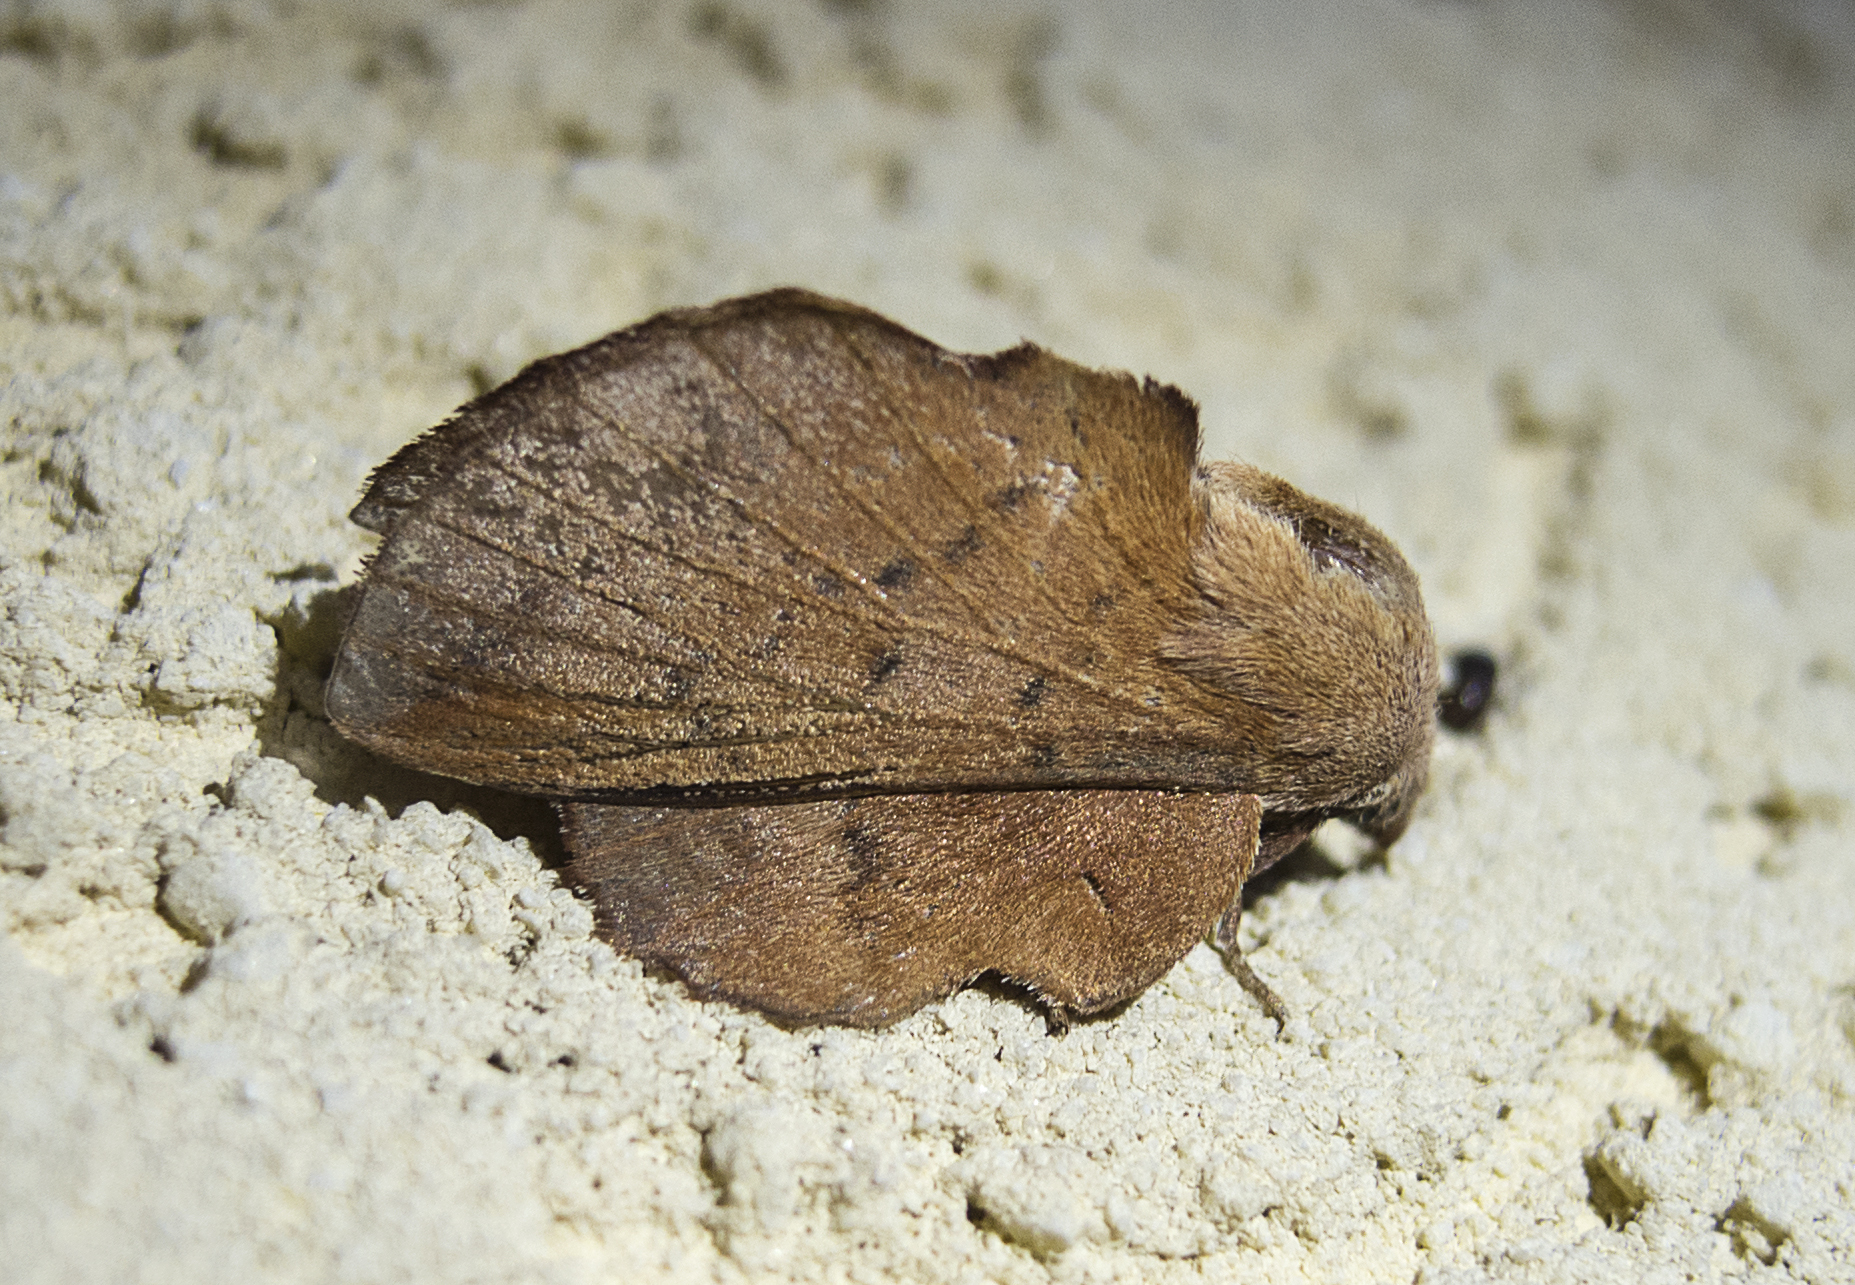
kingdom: Animalia
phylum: Arthropoda
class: Insecta
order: Lepidoptera
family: Lasiocampidae
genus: Phyllodesma
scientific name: Phyllodesma tremulifolia
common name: Aspen lappet
